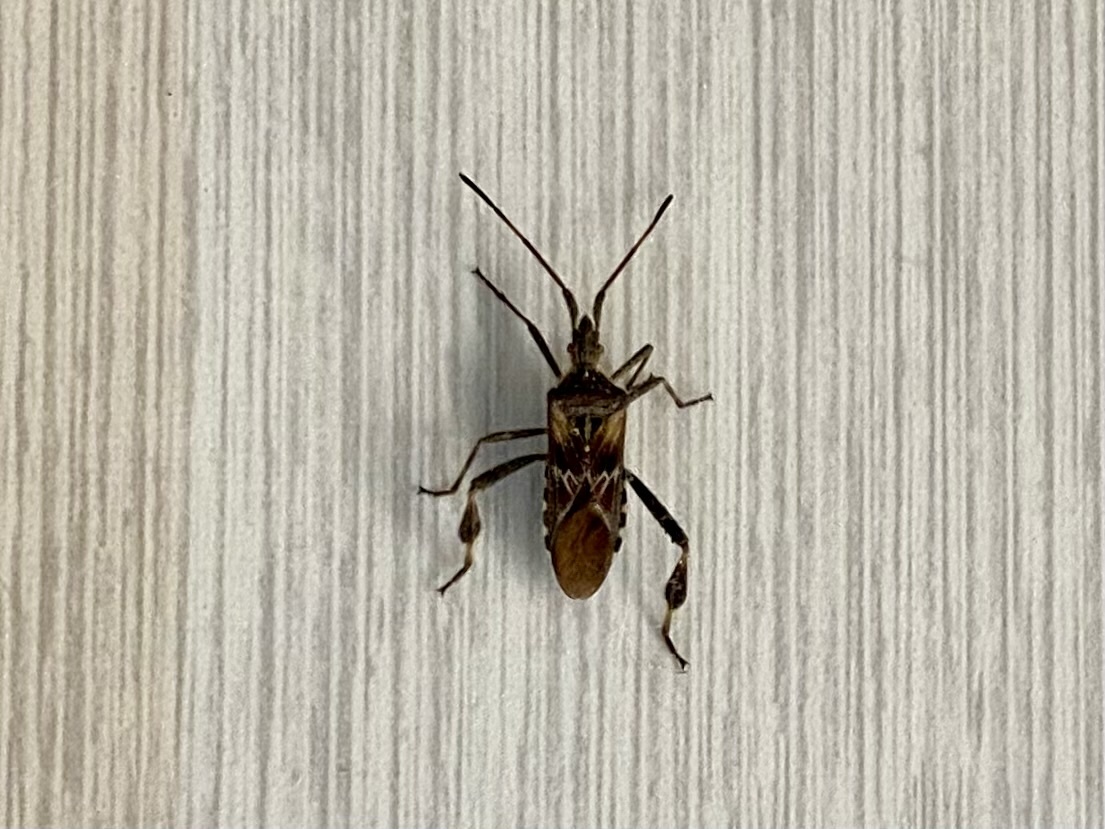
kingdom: Animalia
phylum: Arthropoda
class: Insecta
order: Hemiptera
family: Coreidae
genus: Leptoglossus
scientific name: Leptoglossus occidentalis
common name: Western conifer-seed bug
